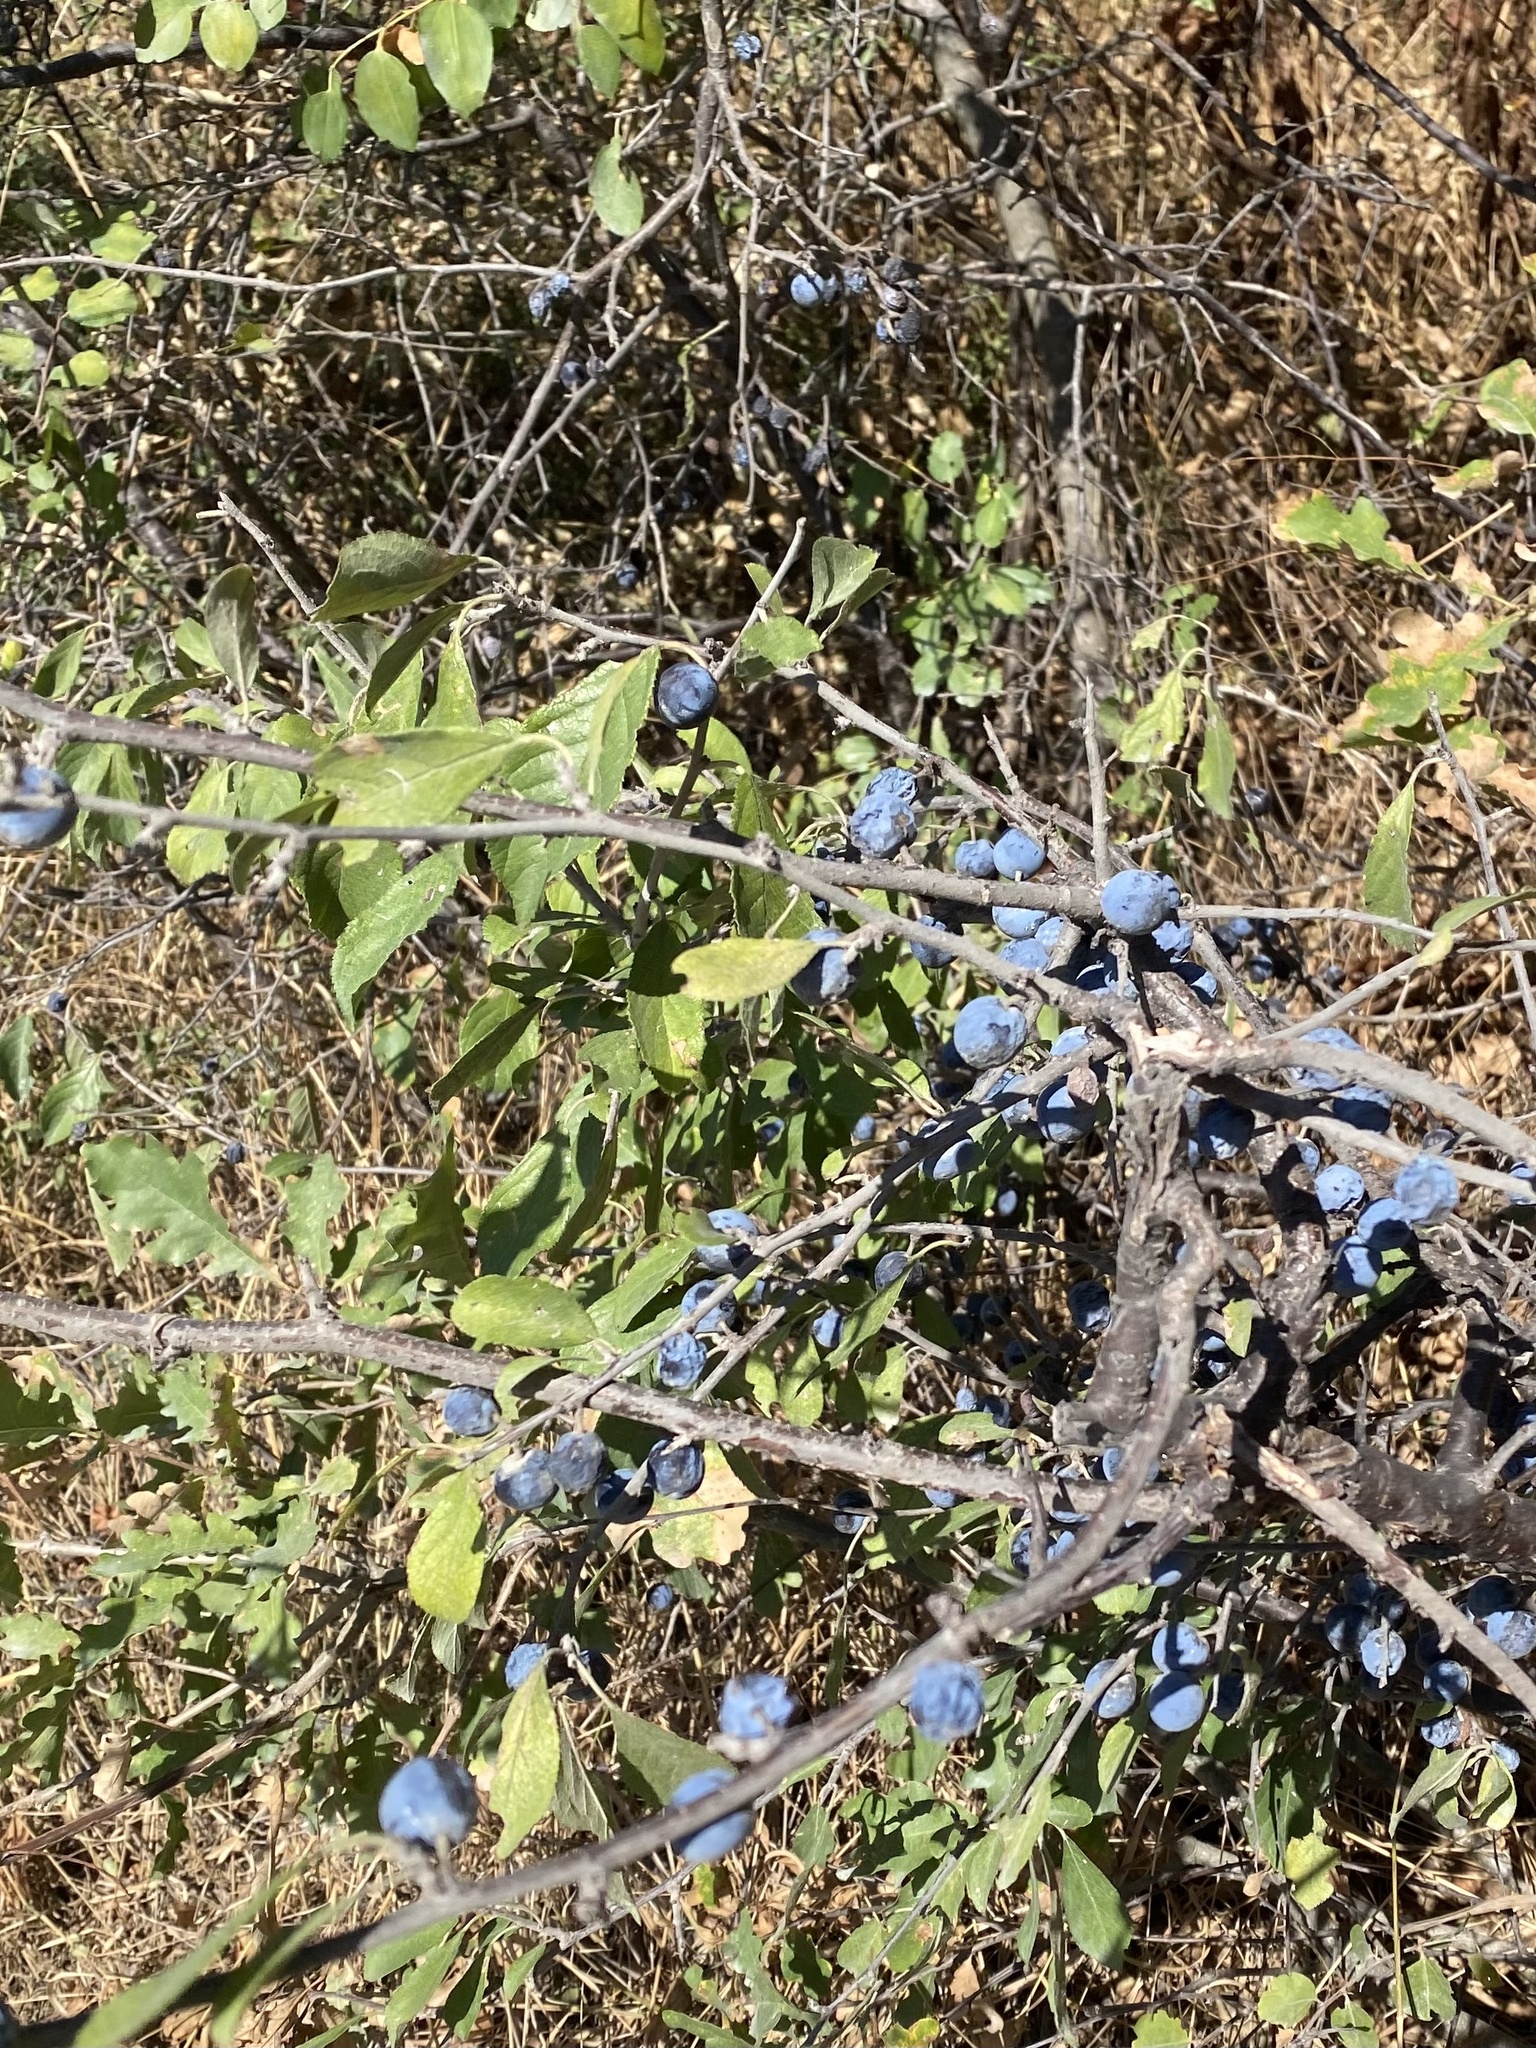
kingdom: Plantae
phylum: Tracheophyta
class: Magnoliopsida
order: Rosales
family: Rosaceae
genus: Prunus
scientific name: Prunus spinosa
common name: Blackthorn
